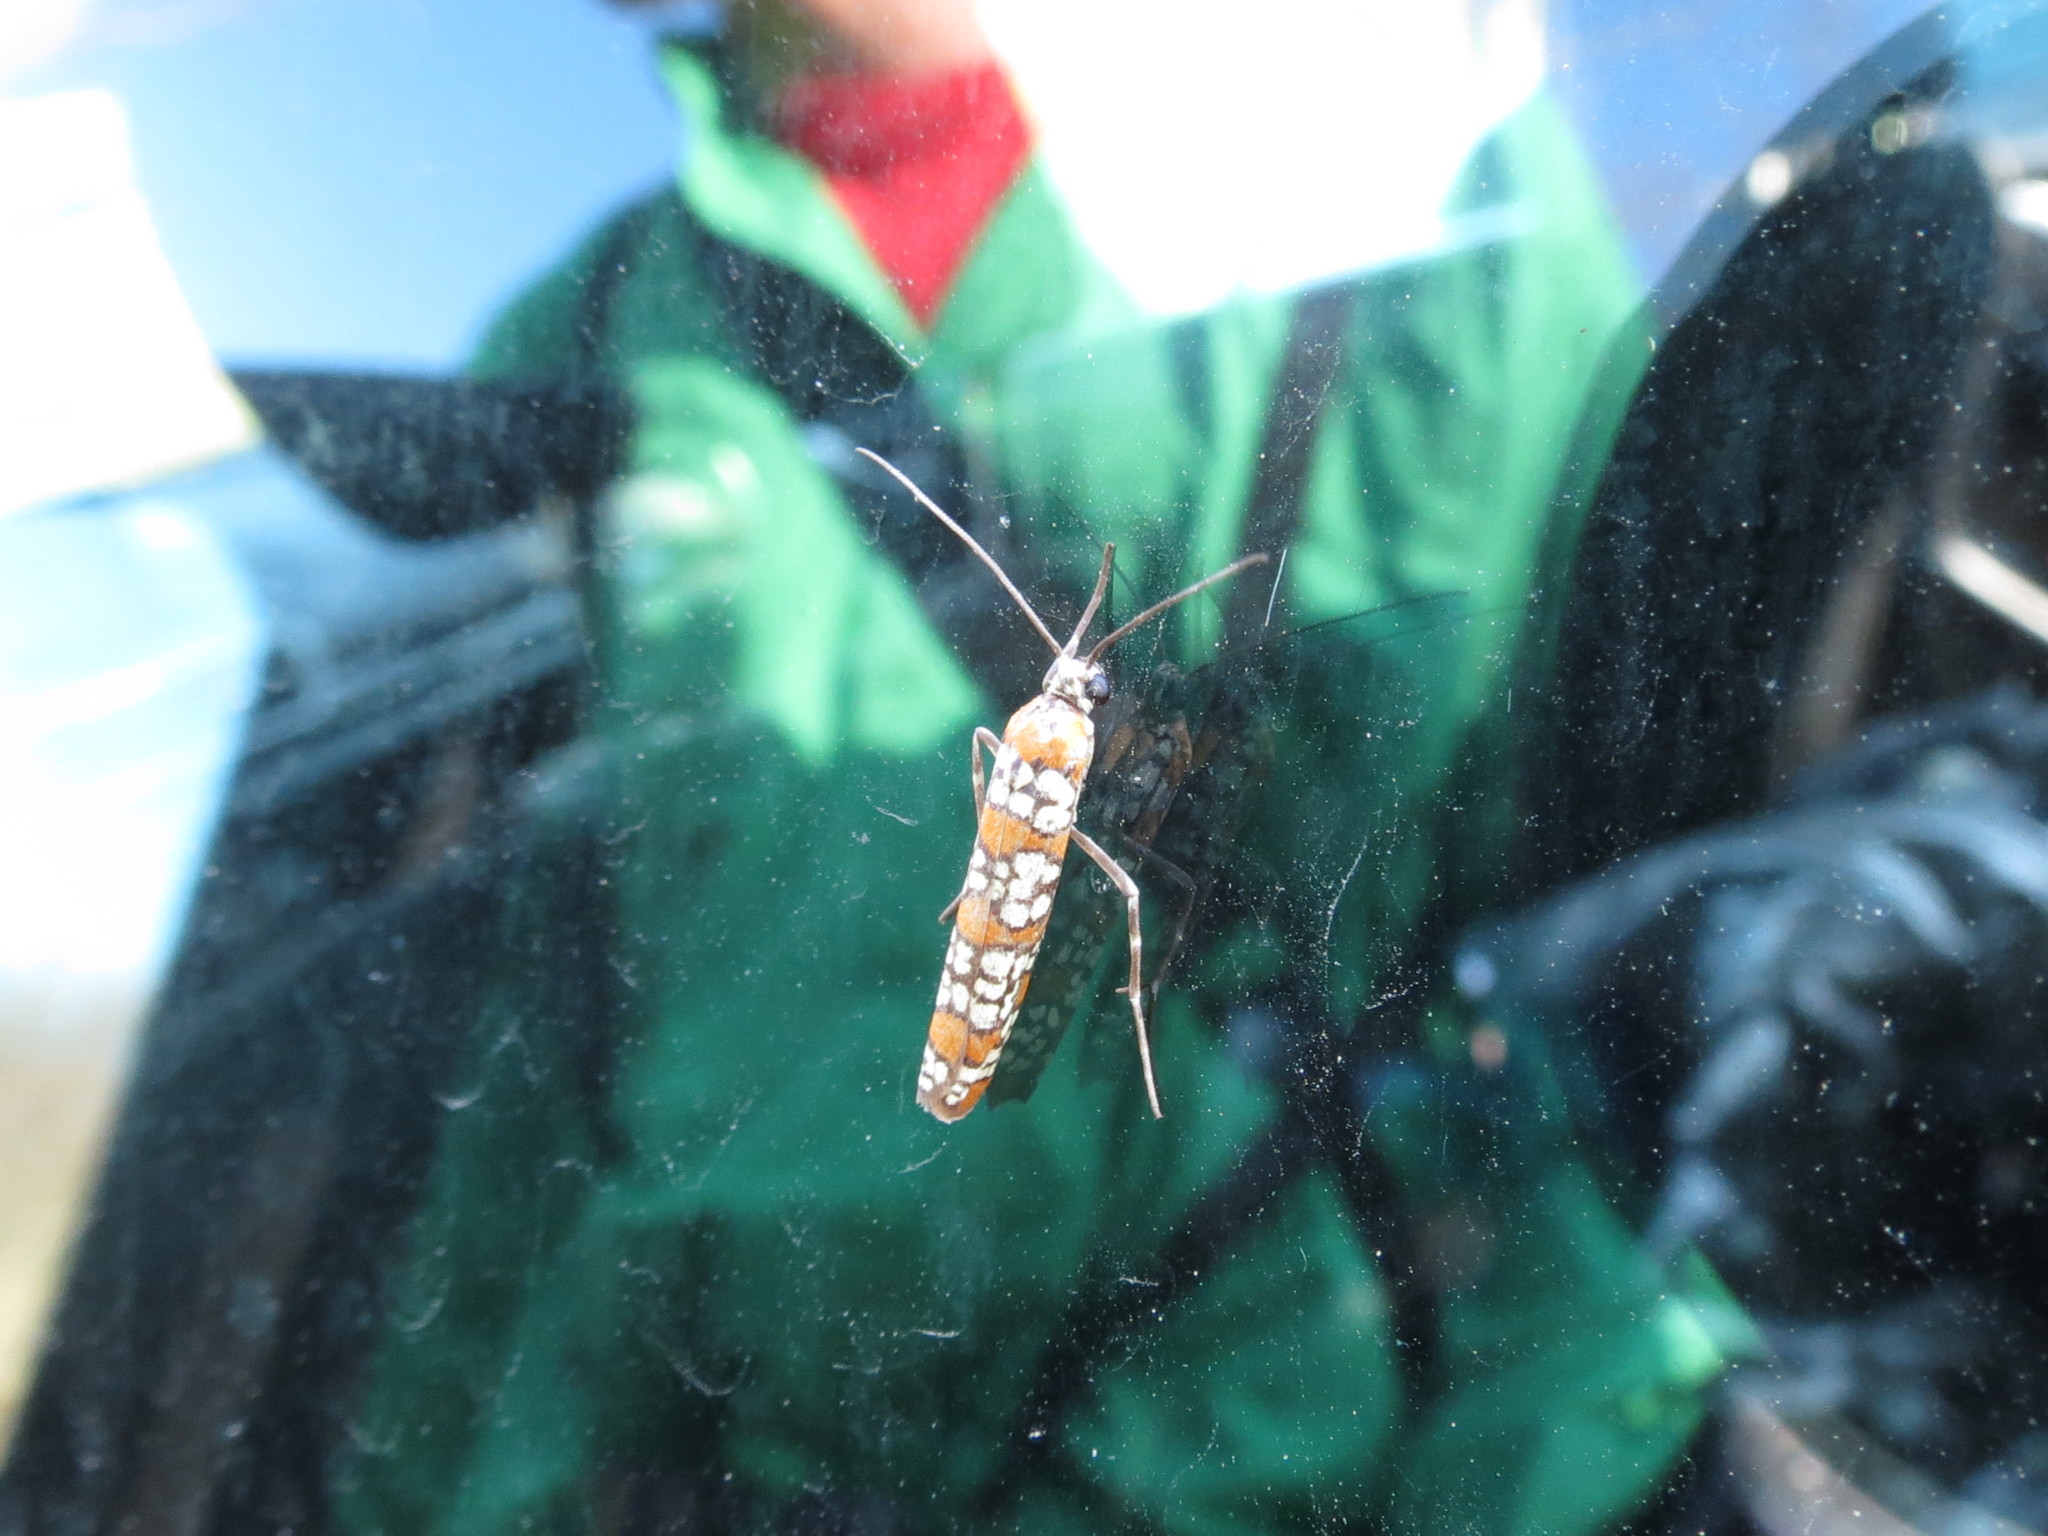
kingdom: Animalia
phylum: Arthropoda
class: Insecta
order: Lepidoptera
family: Attevidae
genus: Atteva
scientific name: Atteva punctella
